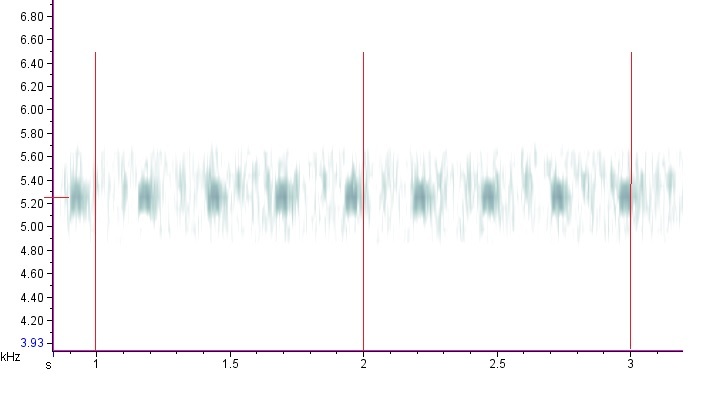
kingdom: Animalia
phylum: Arthropoda
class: Insecta
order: Orthoptera
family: Trigonidiidae
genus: Anaxipha
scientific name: Anaxipha tinnulenta
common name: Slow-tinkling trig
